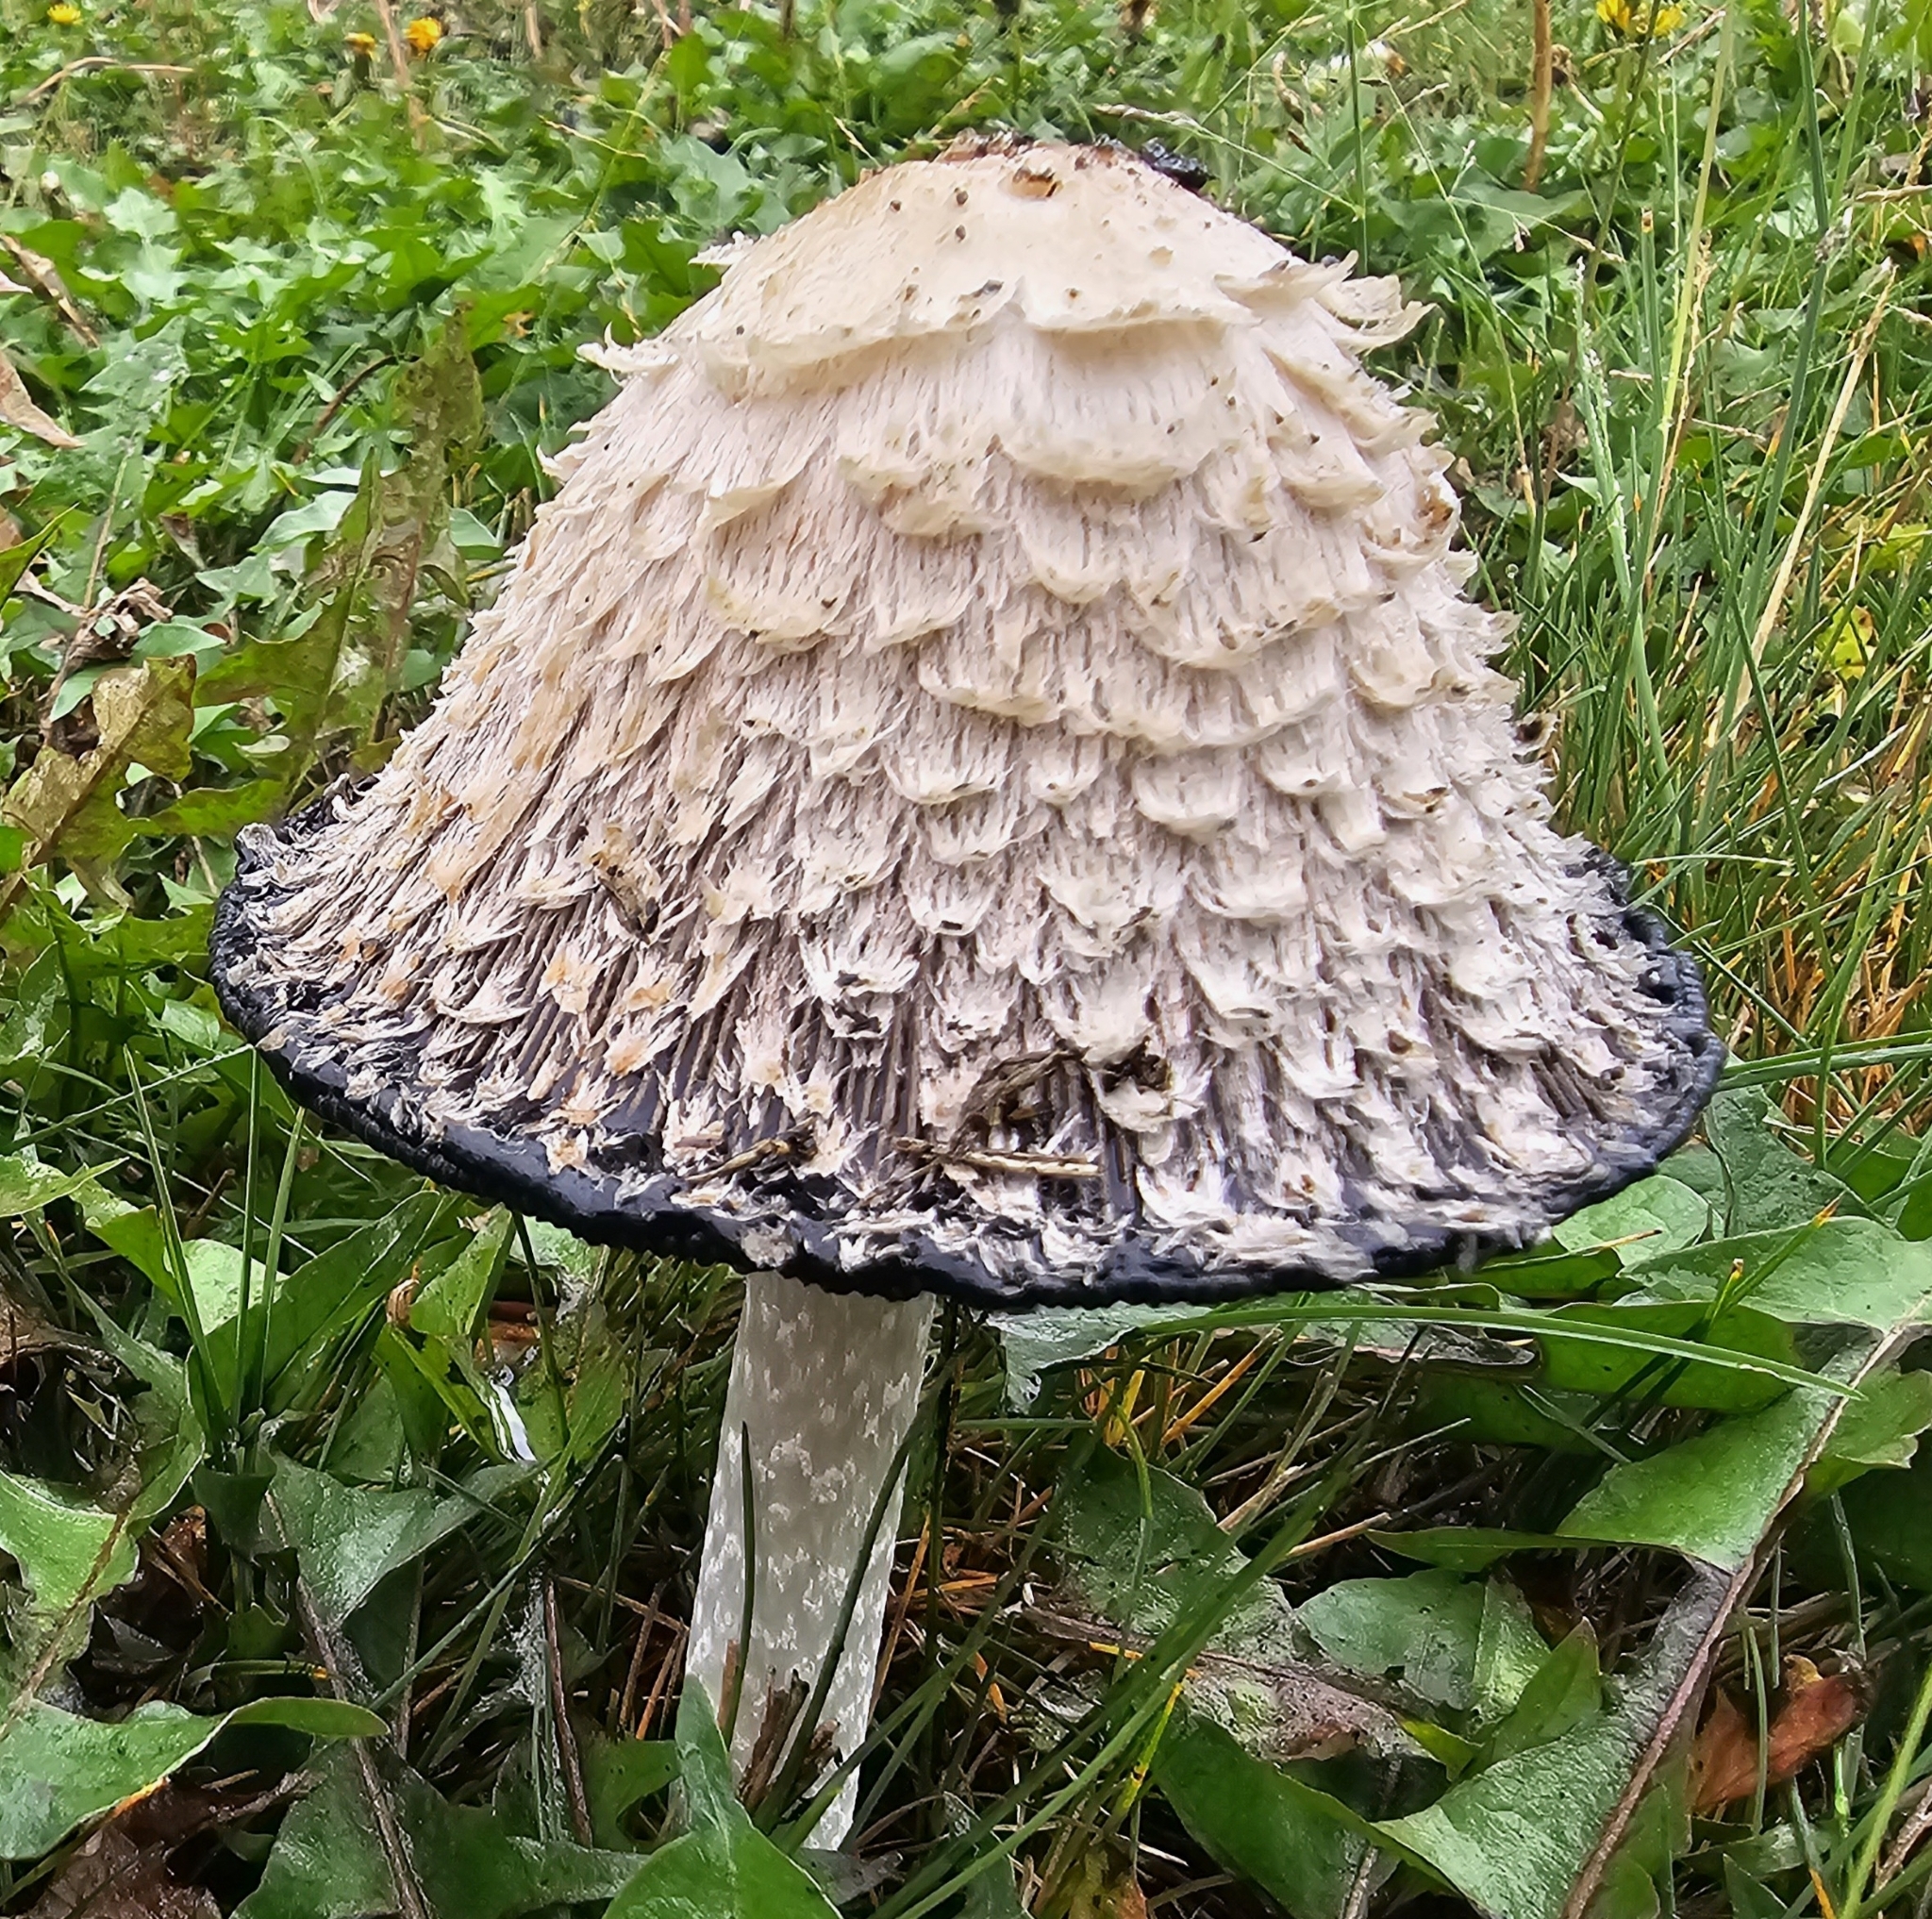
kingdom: Fungi
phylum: Basidiomycota
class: Agaricomycetes
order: Agaricales
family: Agaricaceae
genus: Coprinus
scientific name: Coprinus comatus
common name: Lawyer's wig
